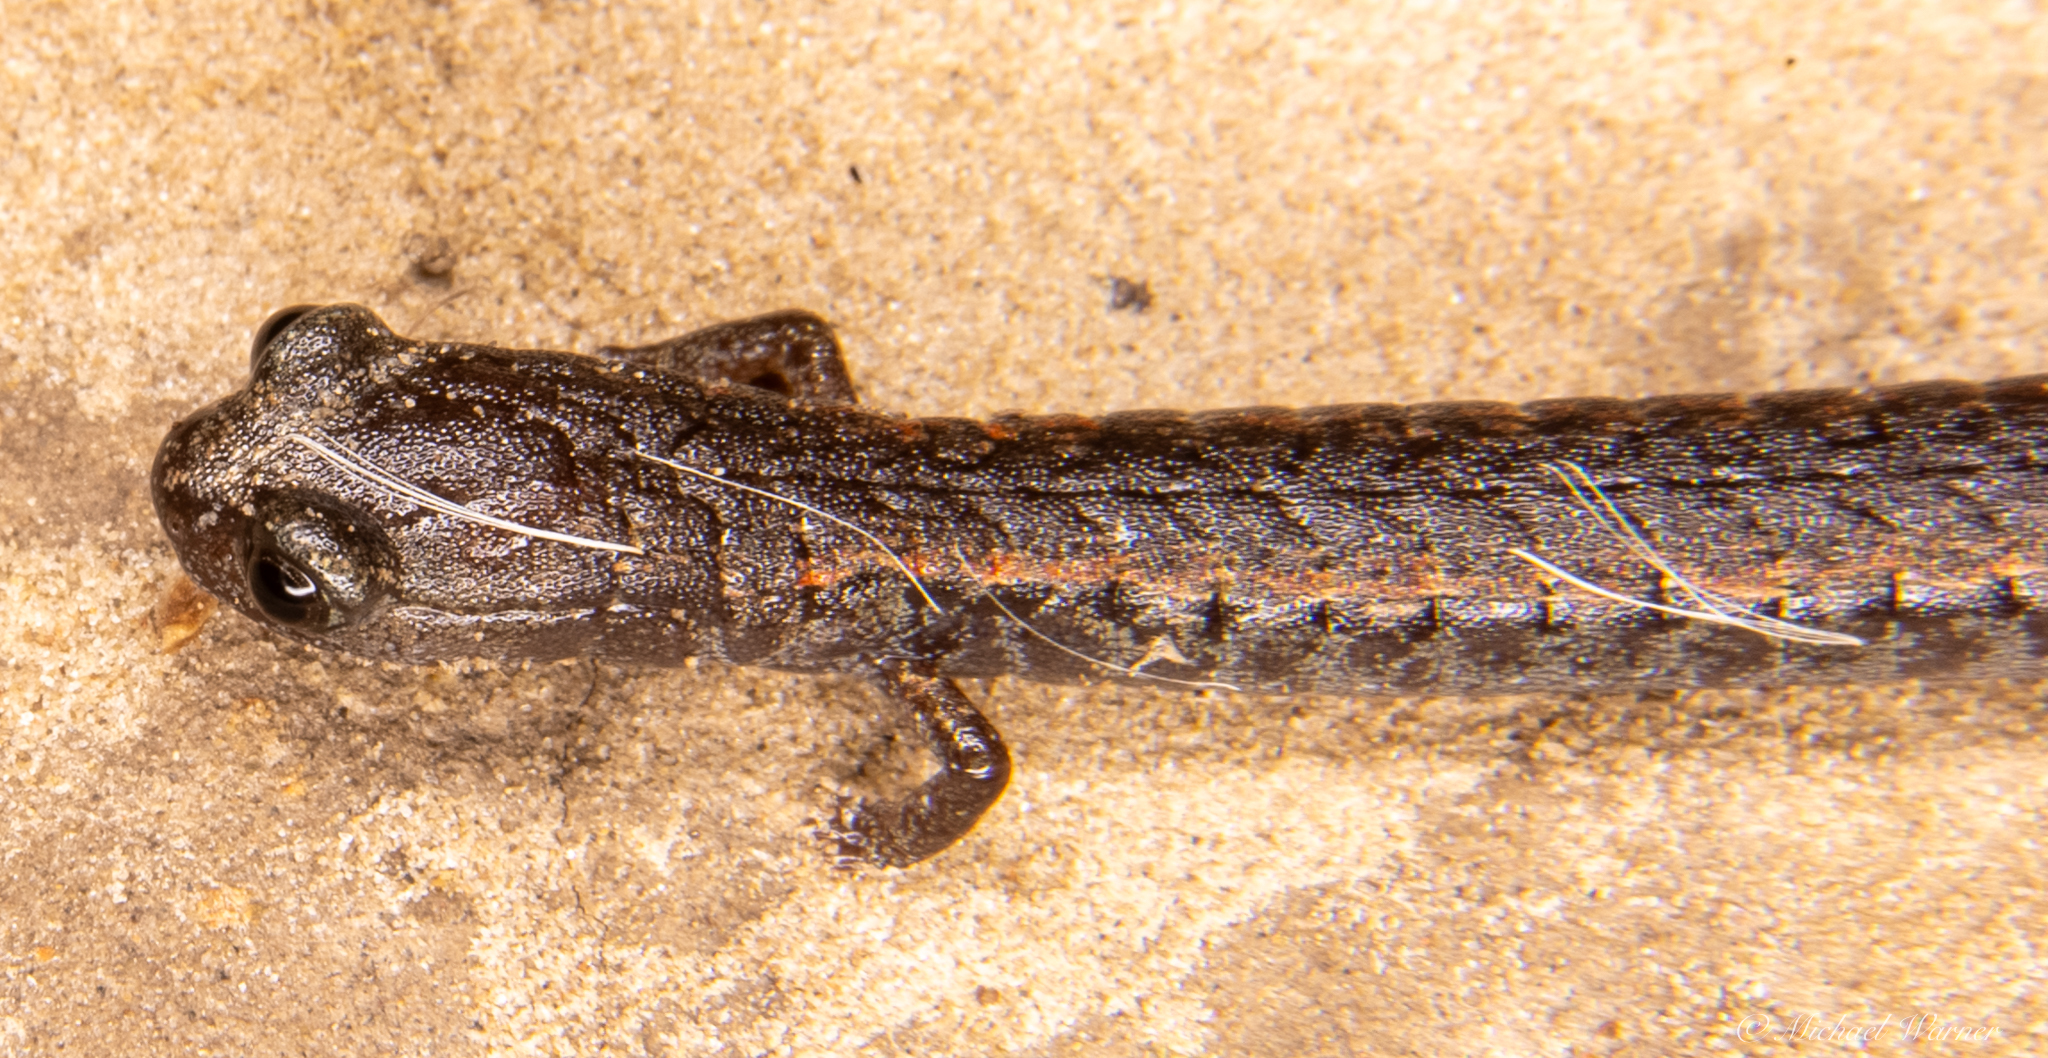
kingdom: Animalia
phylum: Chordata
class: Amphibia
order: Caudata
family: Plethodontidae
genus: Batrachoseps
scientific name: Batrachoseps attenuatus
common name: California slender salamander
